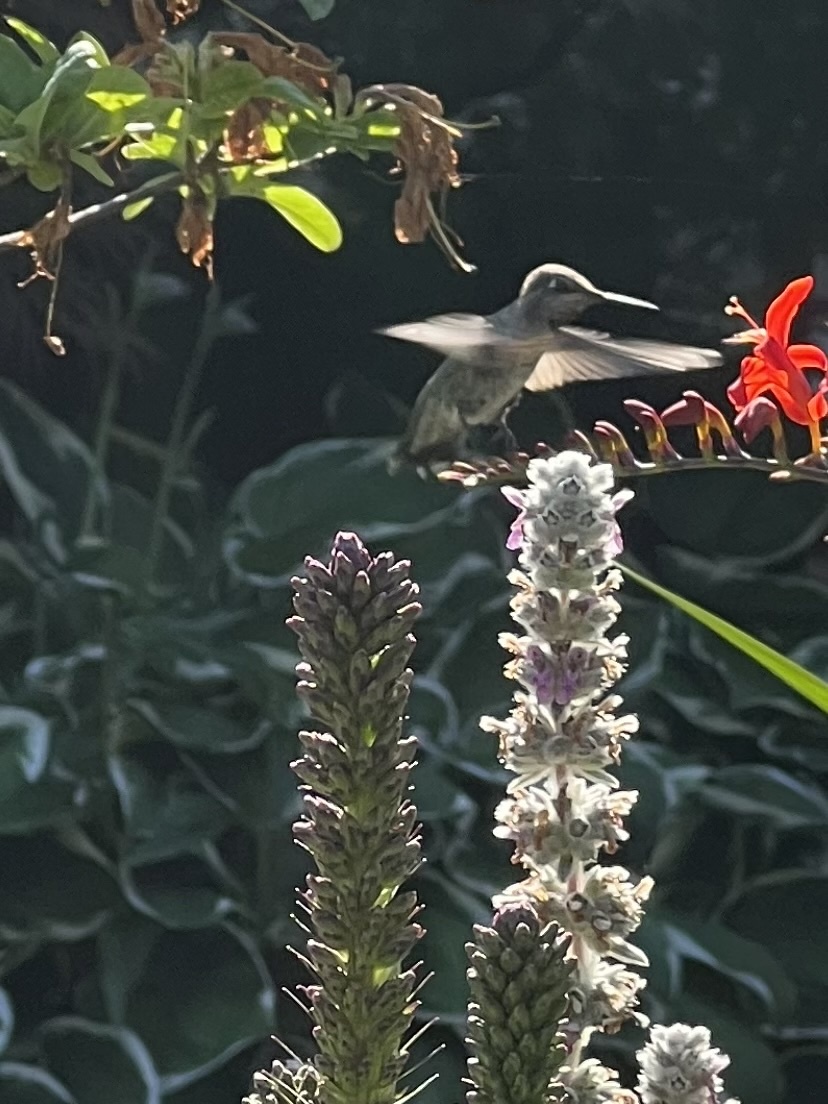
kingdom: Animalia
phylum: Chordata
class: Aves
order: Apodiformes
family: Trochilidae
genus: Calypte
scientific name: Calypte anna
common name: Anna's hummingbird
